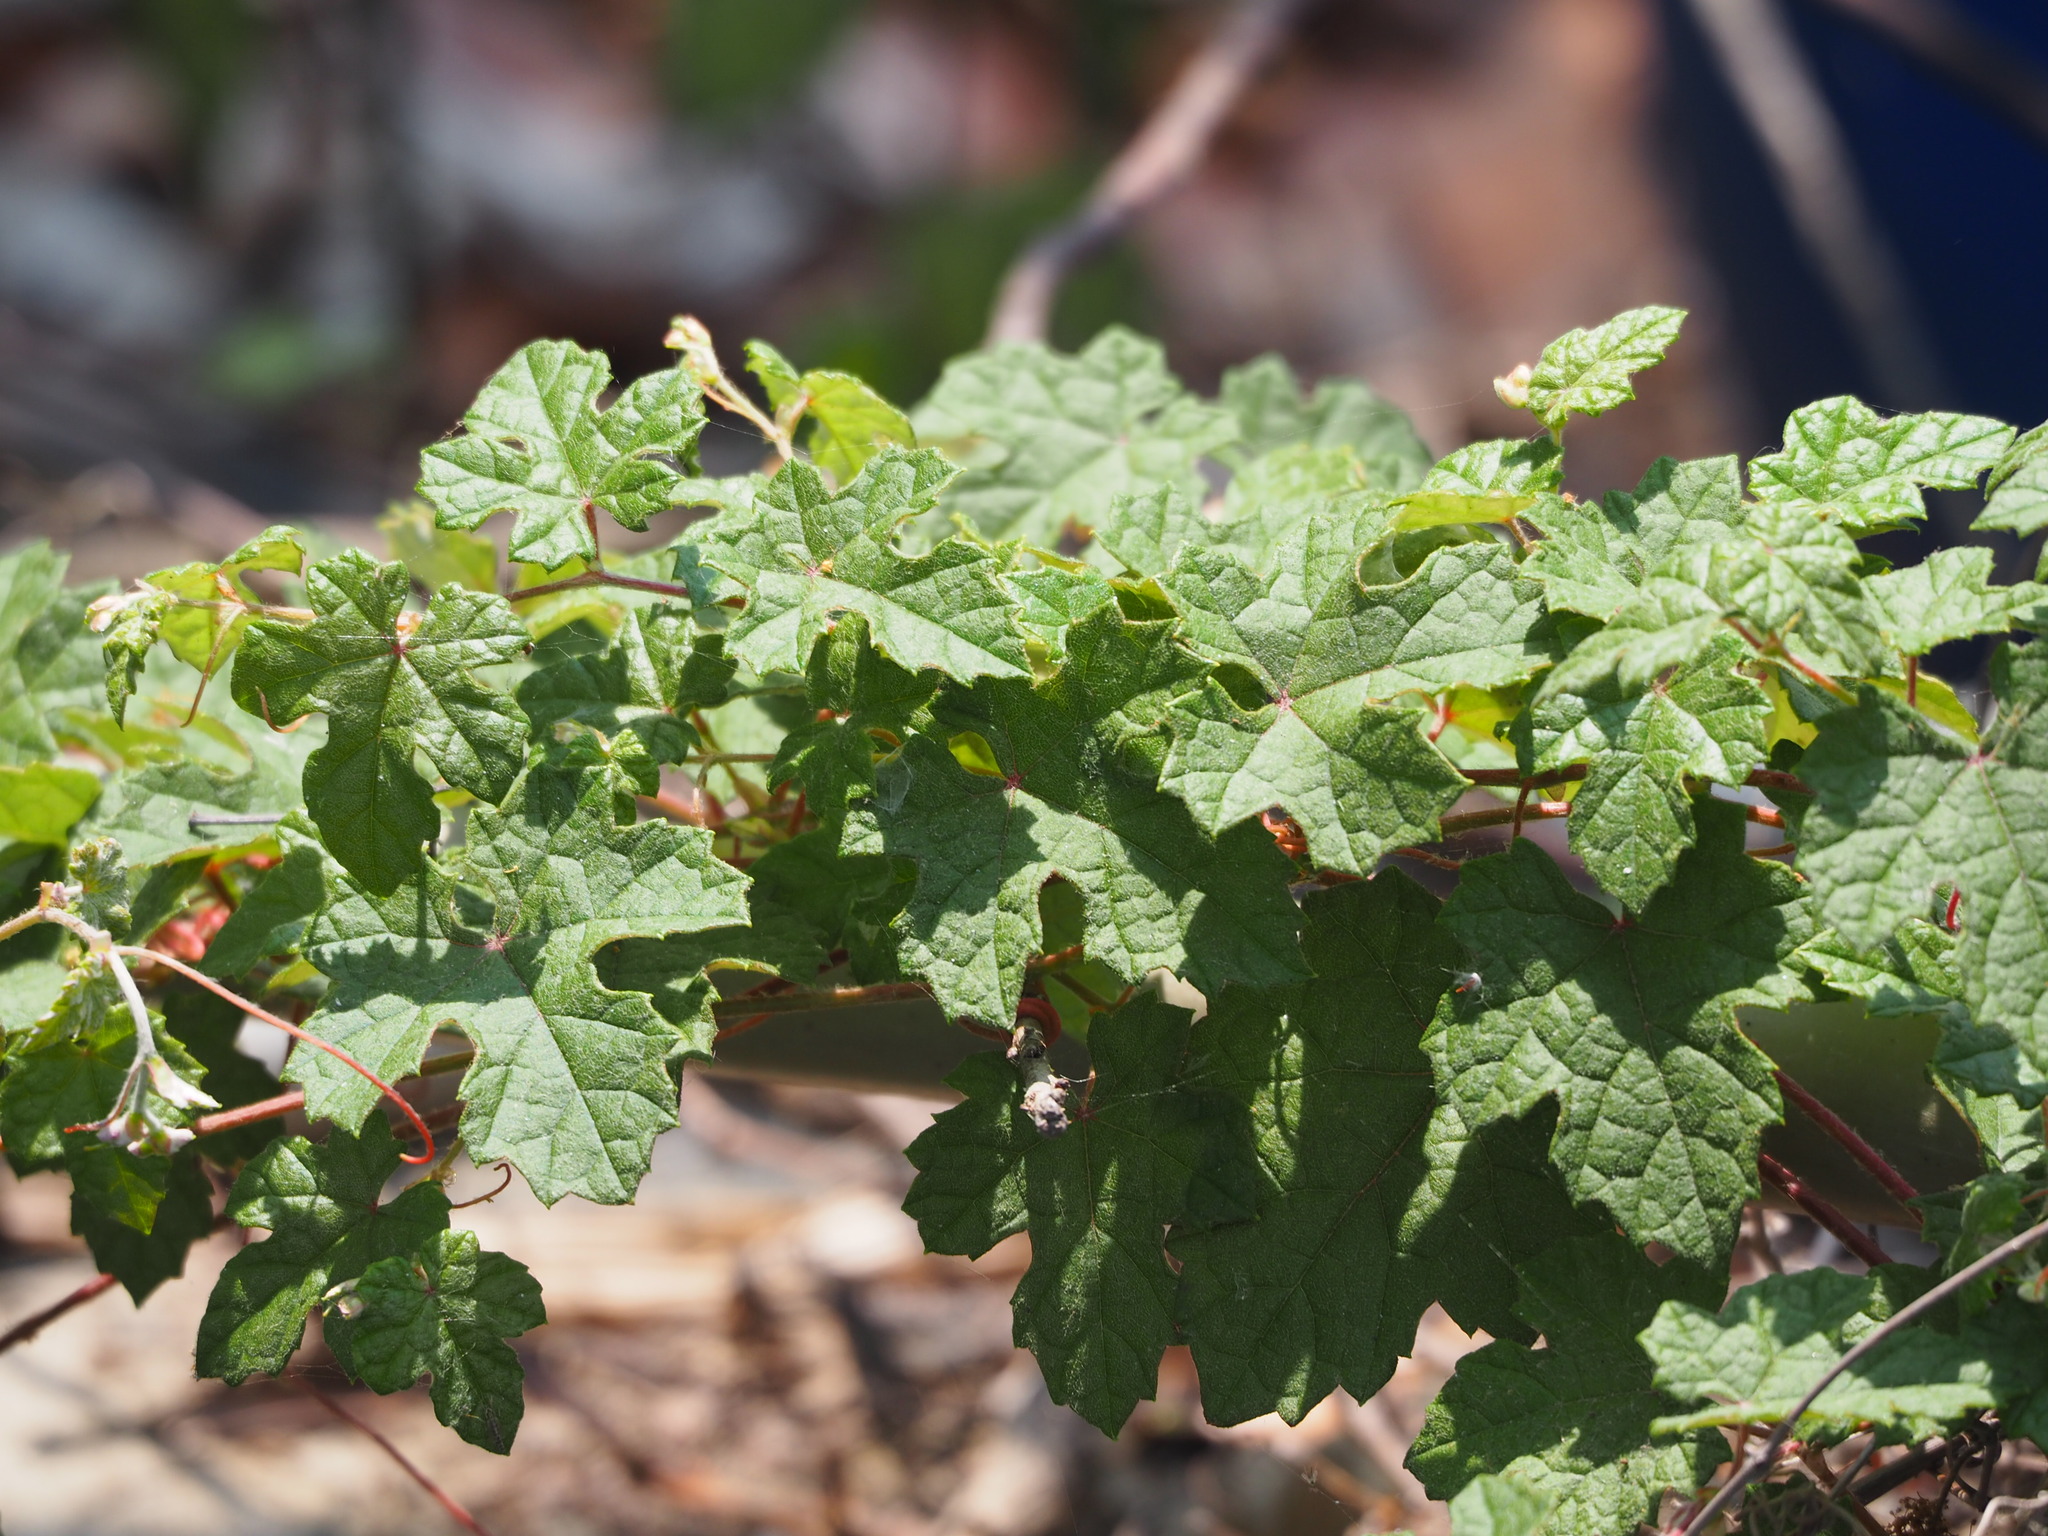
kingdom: Plantae
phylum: Tracheophyta
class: Magnoliopsida
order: Vitales
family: Vitaceae
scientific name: Vitaceae
